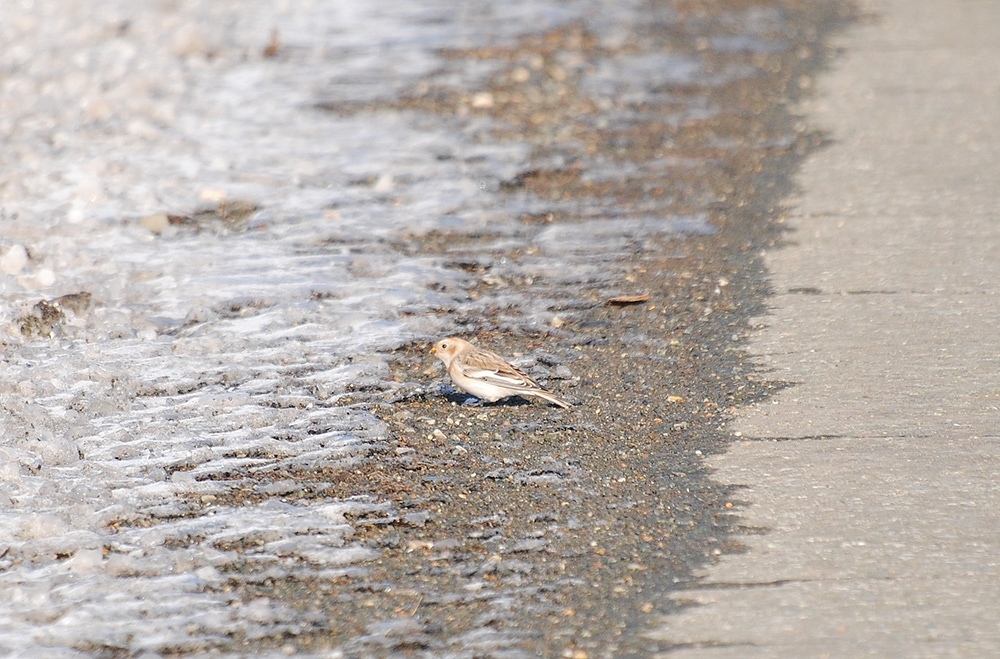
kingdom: Animalia
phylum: Chordata
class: Aves
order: Passeriformes
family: Calcariidae
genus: Plectrophenax
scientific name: Plectrophenax nivalis
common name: Snow bunting
